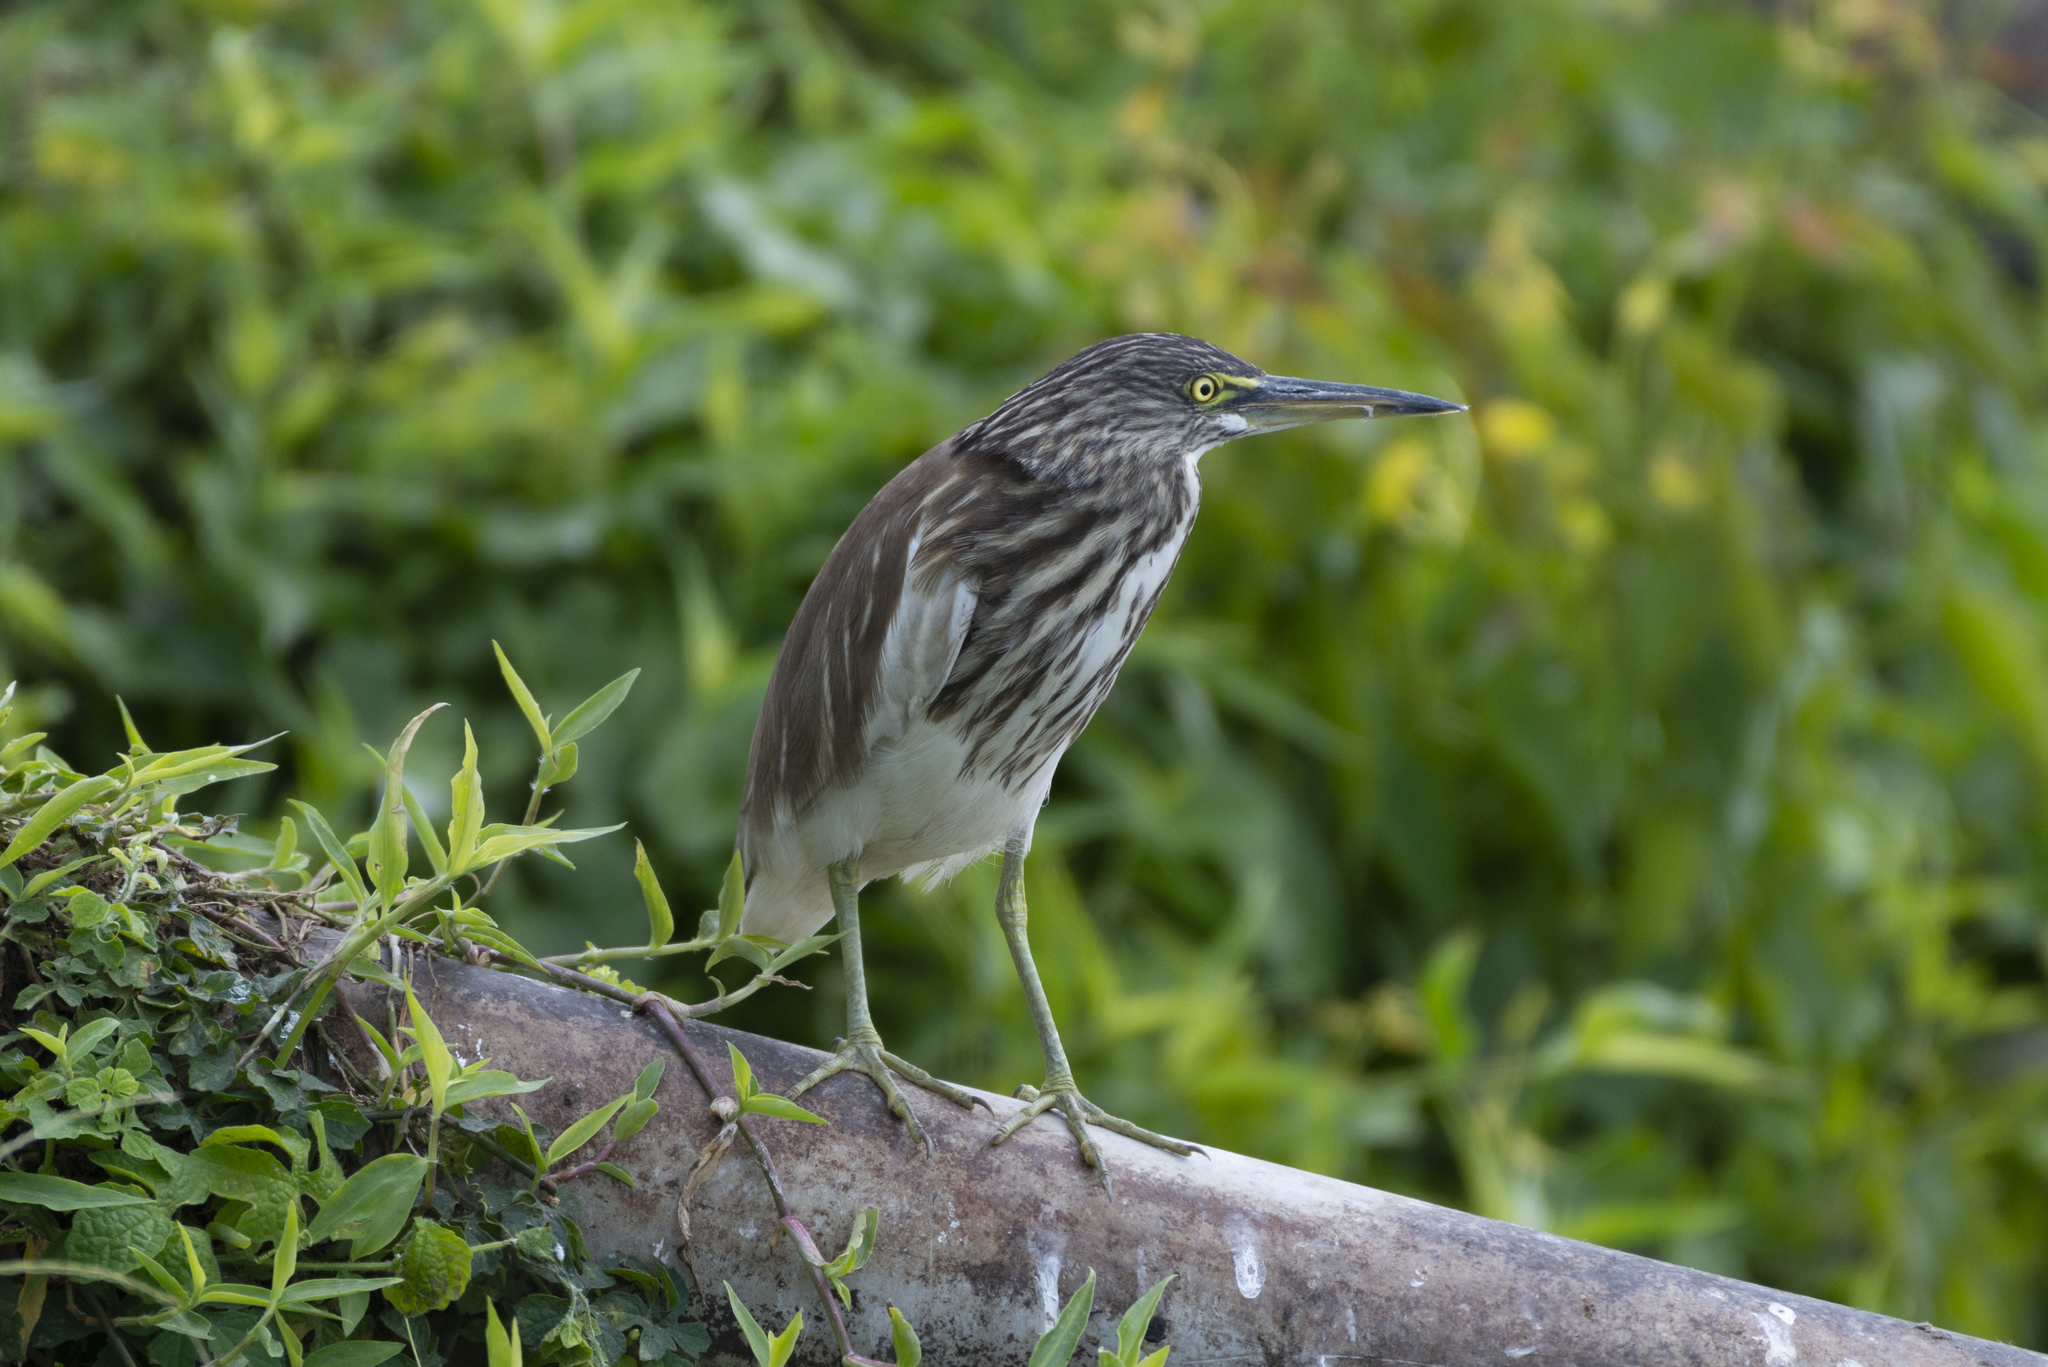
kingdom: Animalia
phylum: Chordata
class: Aves
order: Pelecaniformes
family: Ardeidae
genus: Ardeola
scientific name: Ardeola bacchus
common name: Chinese pond heron
